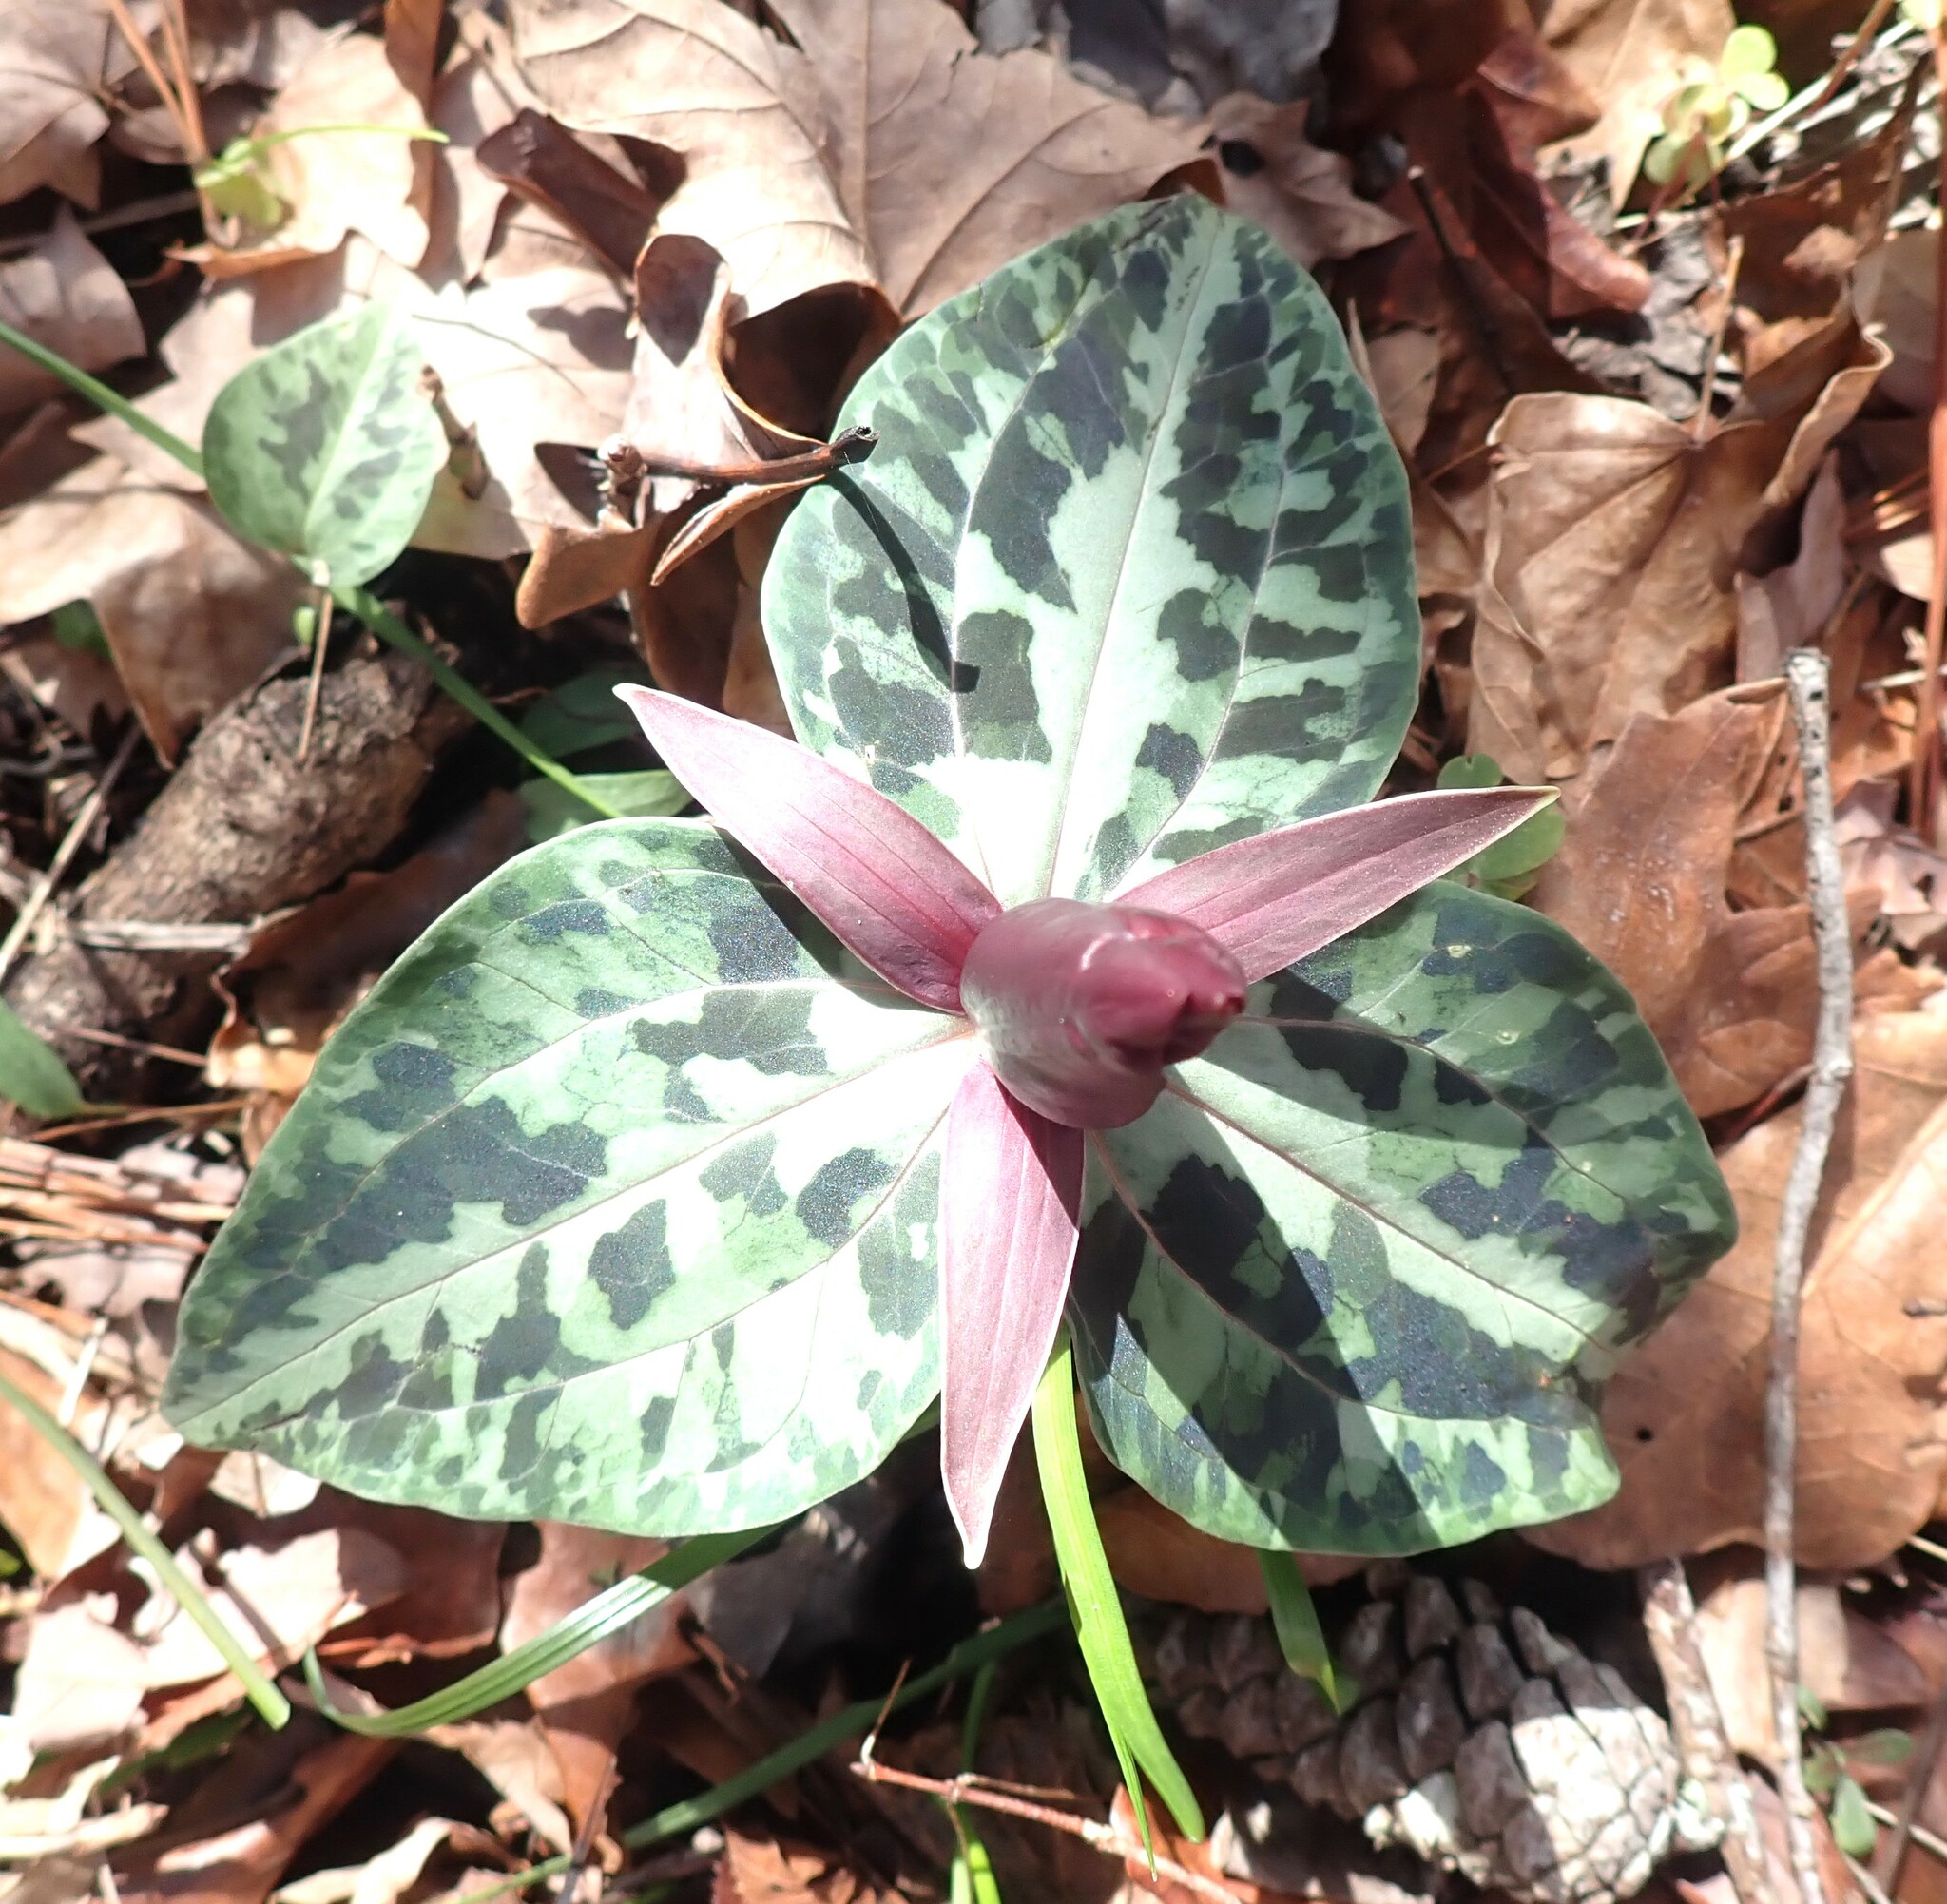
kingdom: Plantae
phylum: Tracheophyta
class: Liliopsida
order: Liliales
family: Melanthiaceae
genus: Trillium
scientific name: Trillium underwoodii
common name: Longbract wakerobin
